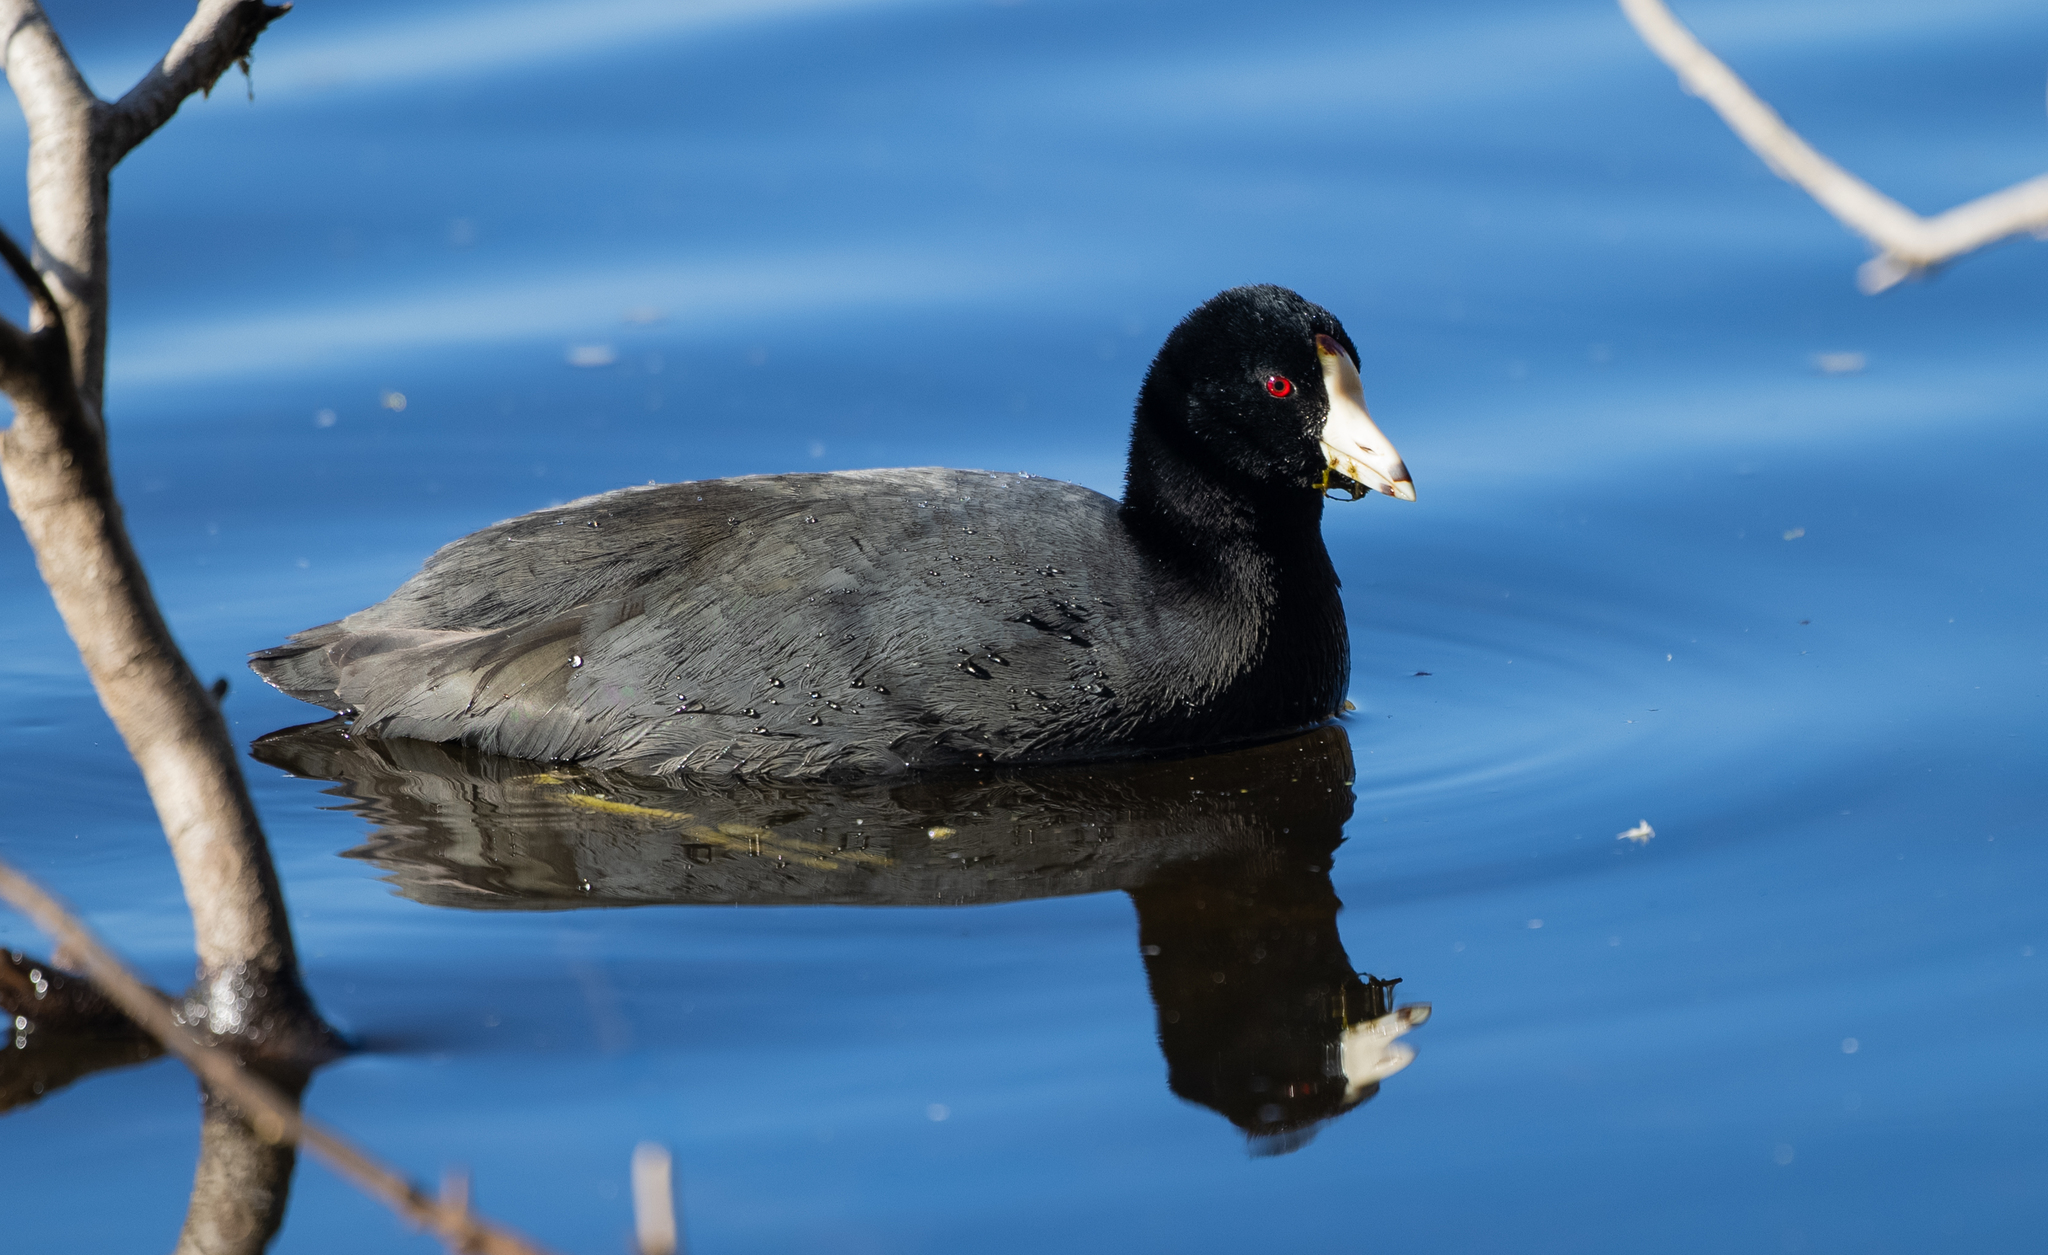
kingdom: Animalia
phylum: Chordata
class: Aves
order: Gruiformes
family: Rallidae
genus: Fulica
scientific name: Fulica americana
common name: American coot
